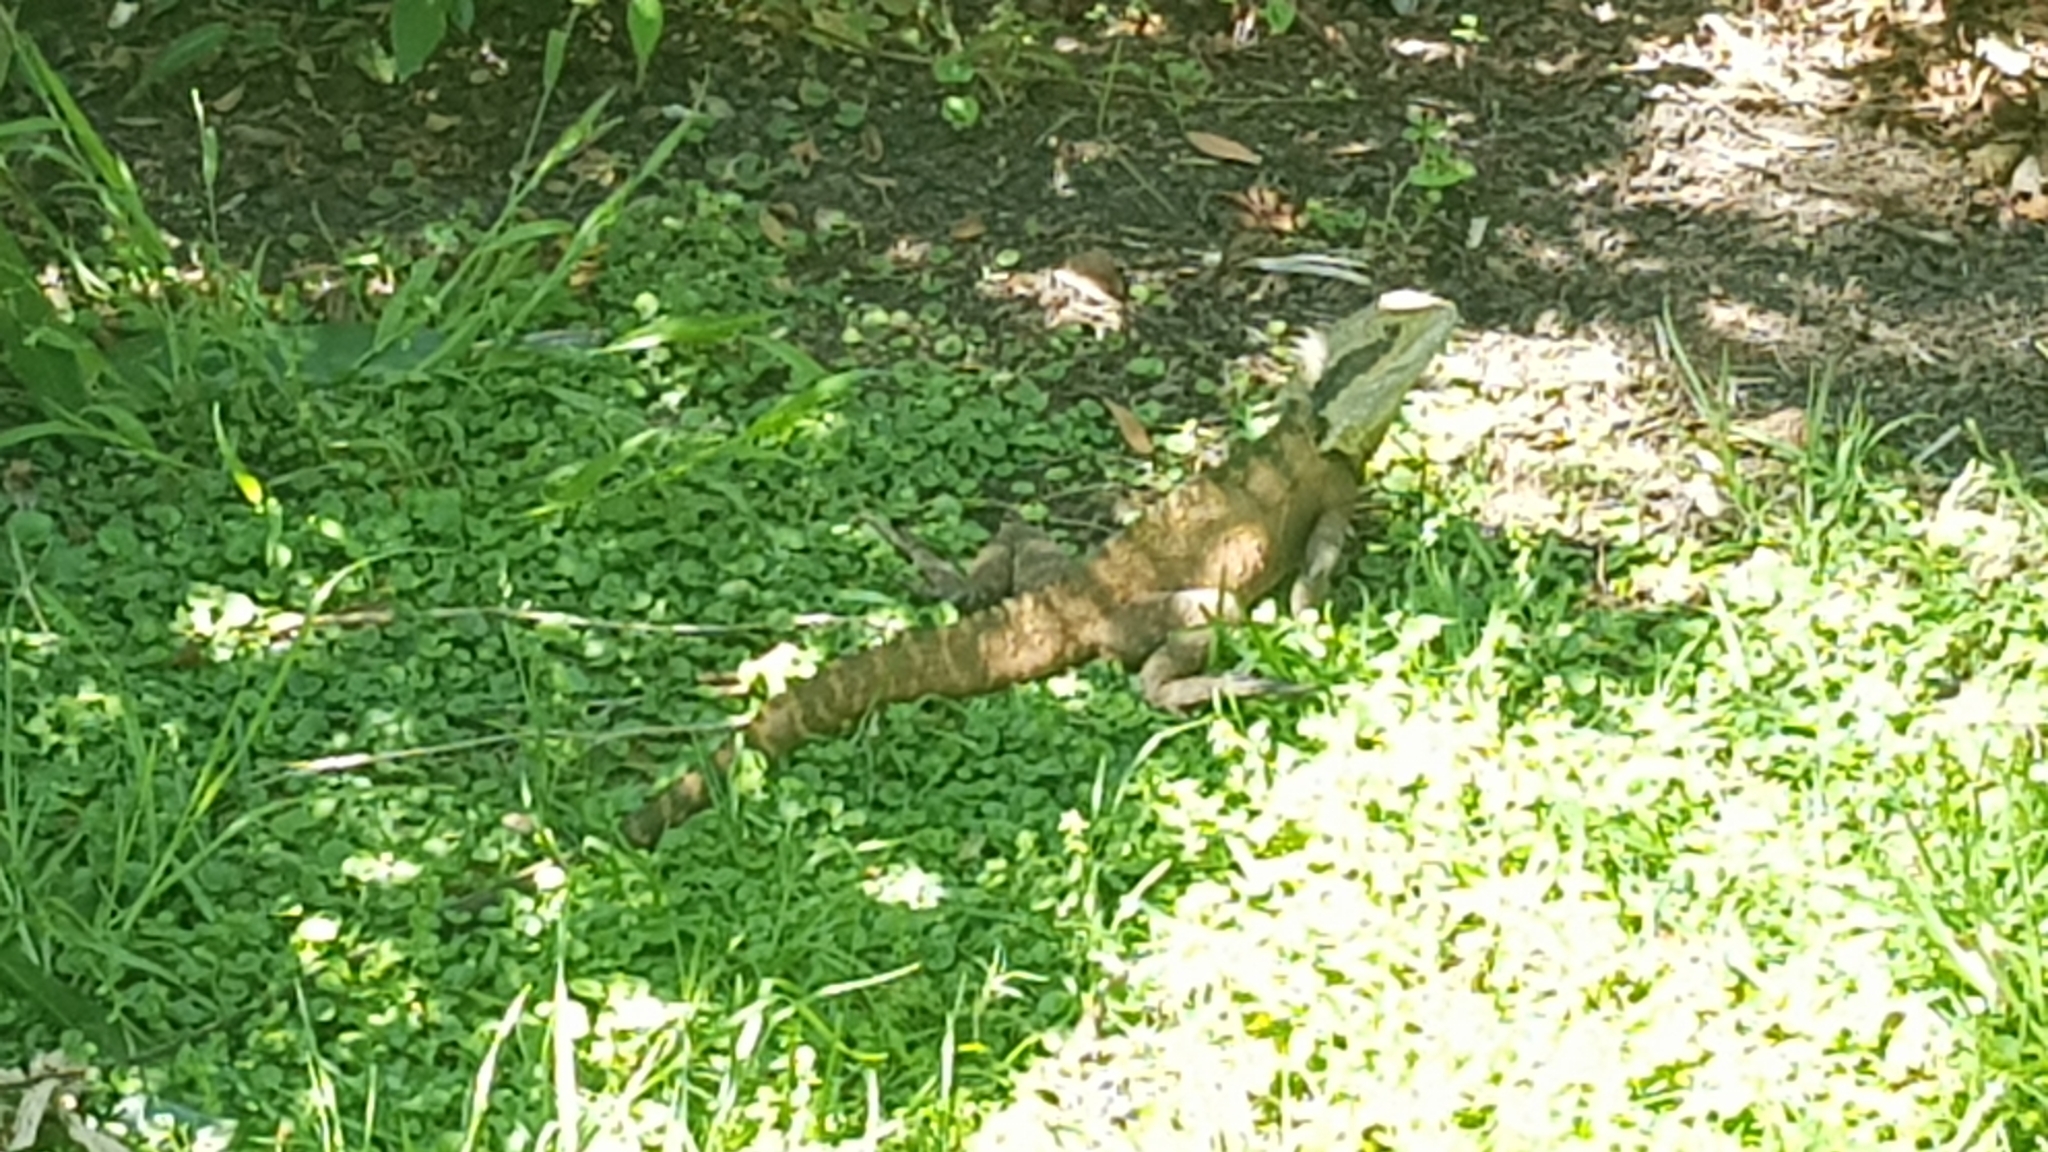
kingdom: Animalia
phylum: Chordata
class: Squamata
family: Agamidae
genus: Intellagama
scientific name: Intellagama lesueurii
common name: Eastern water dragon
